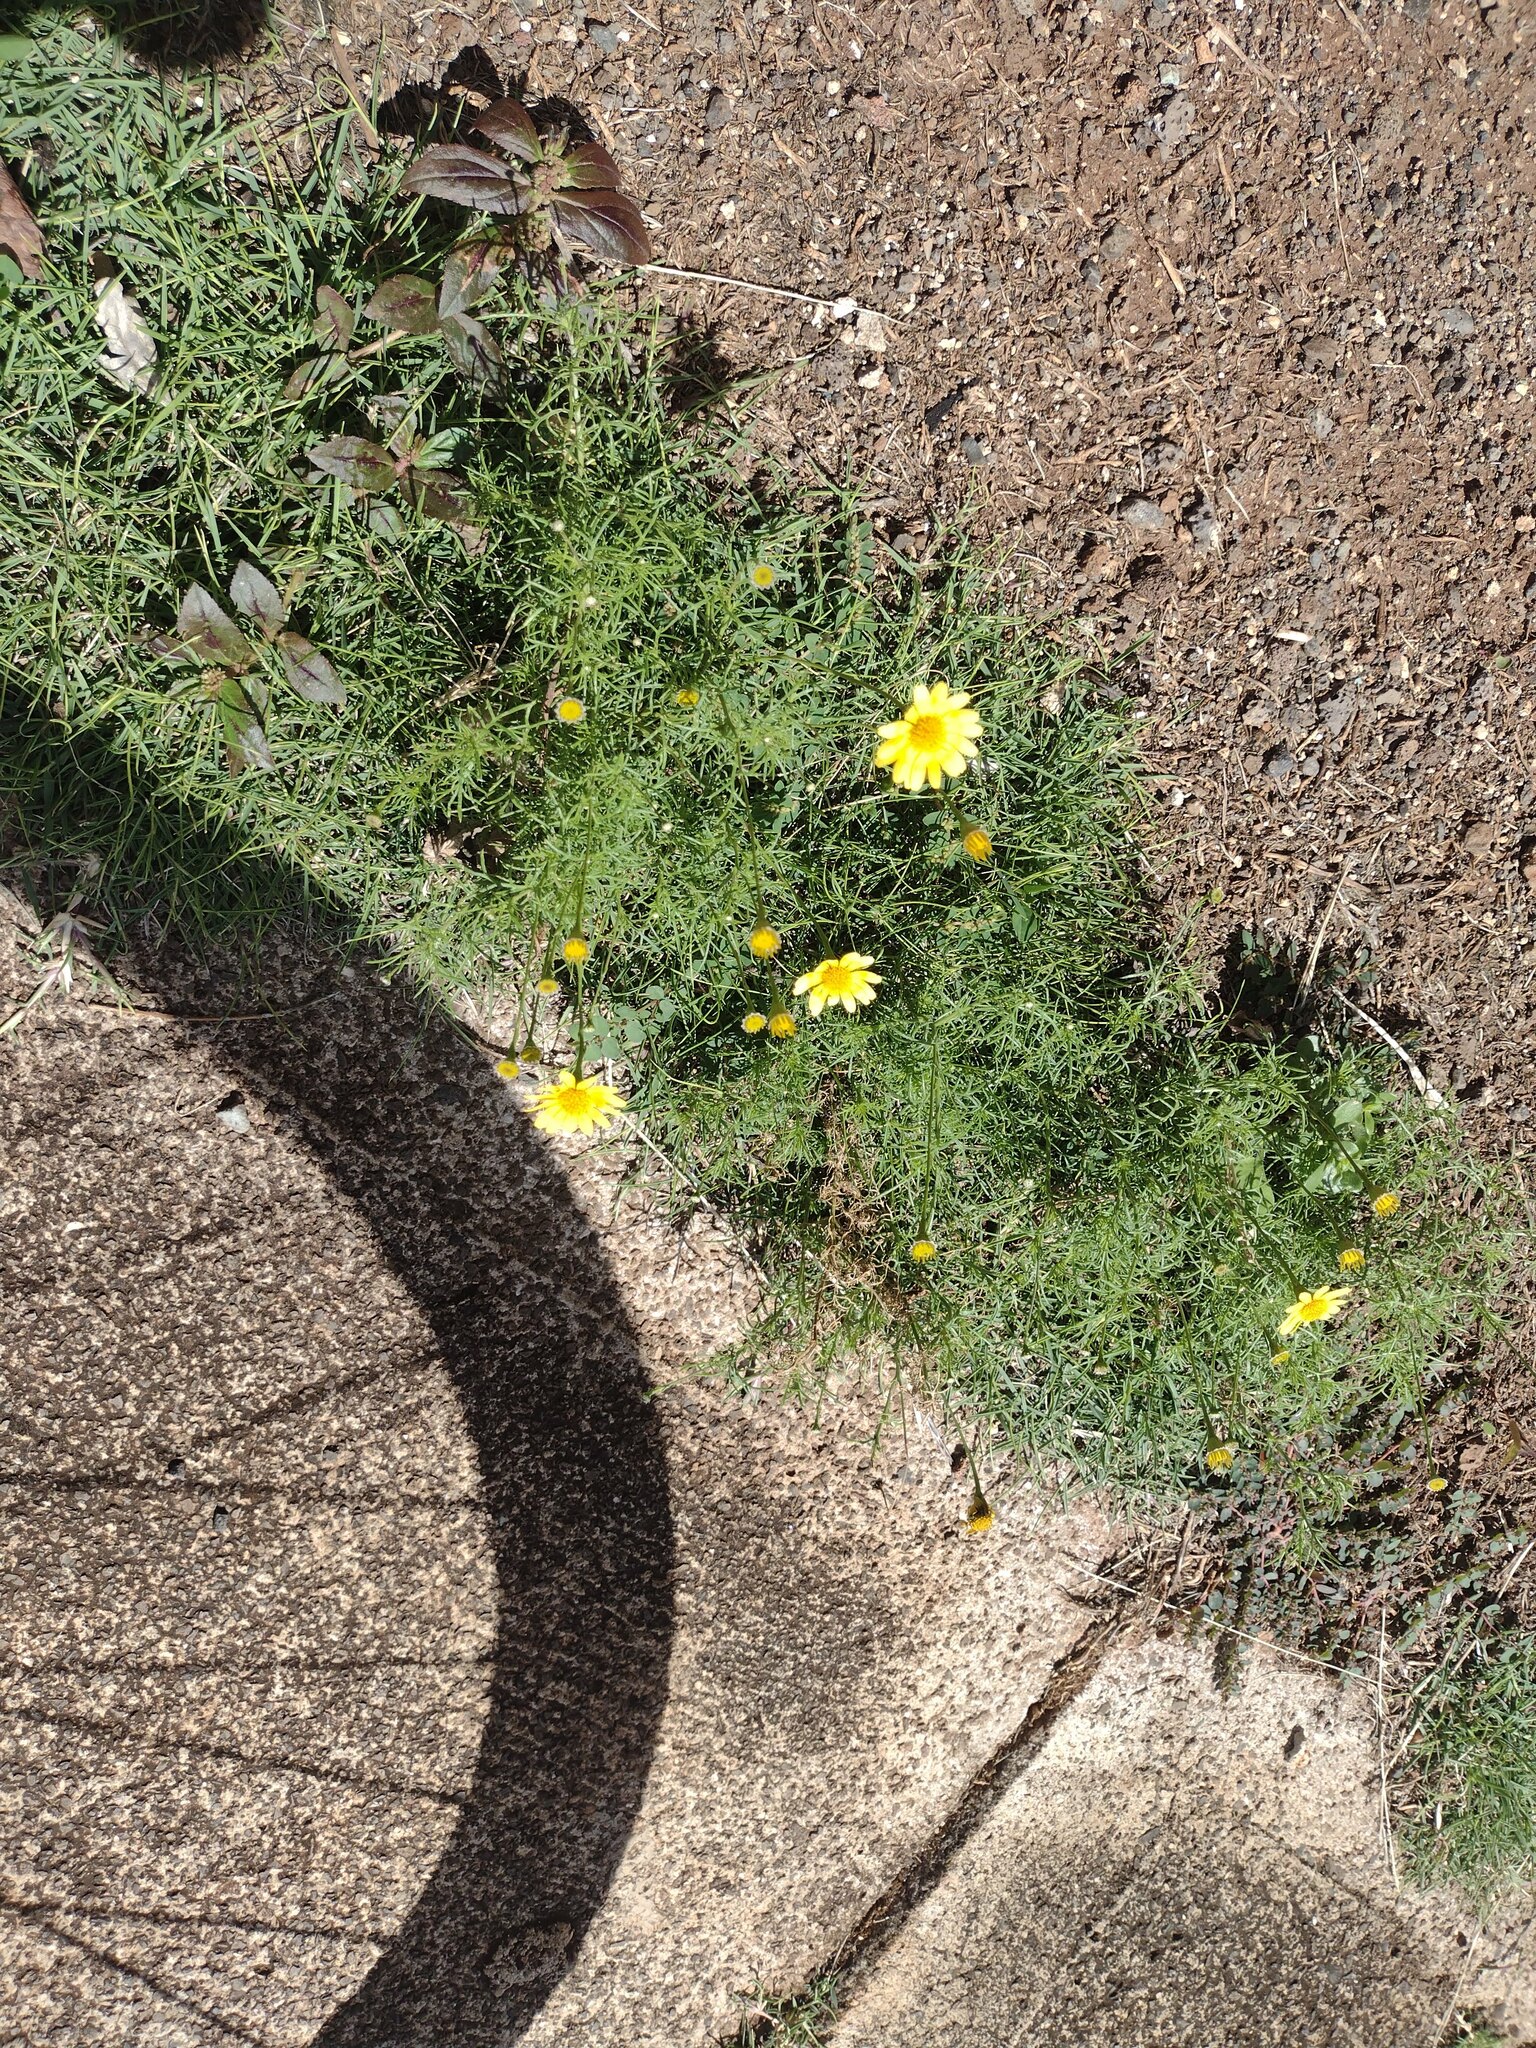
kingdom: Plantae
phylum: Tracheophyta
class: Magnoliopsida
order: Asterales
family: Asteraceae
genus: Thymophylla
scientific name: Thymophylla tenuiloba
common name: Dahlberg's daisy
